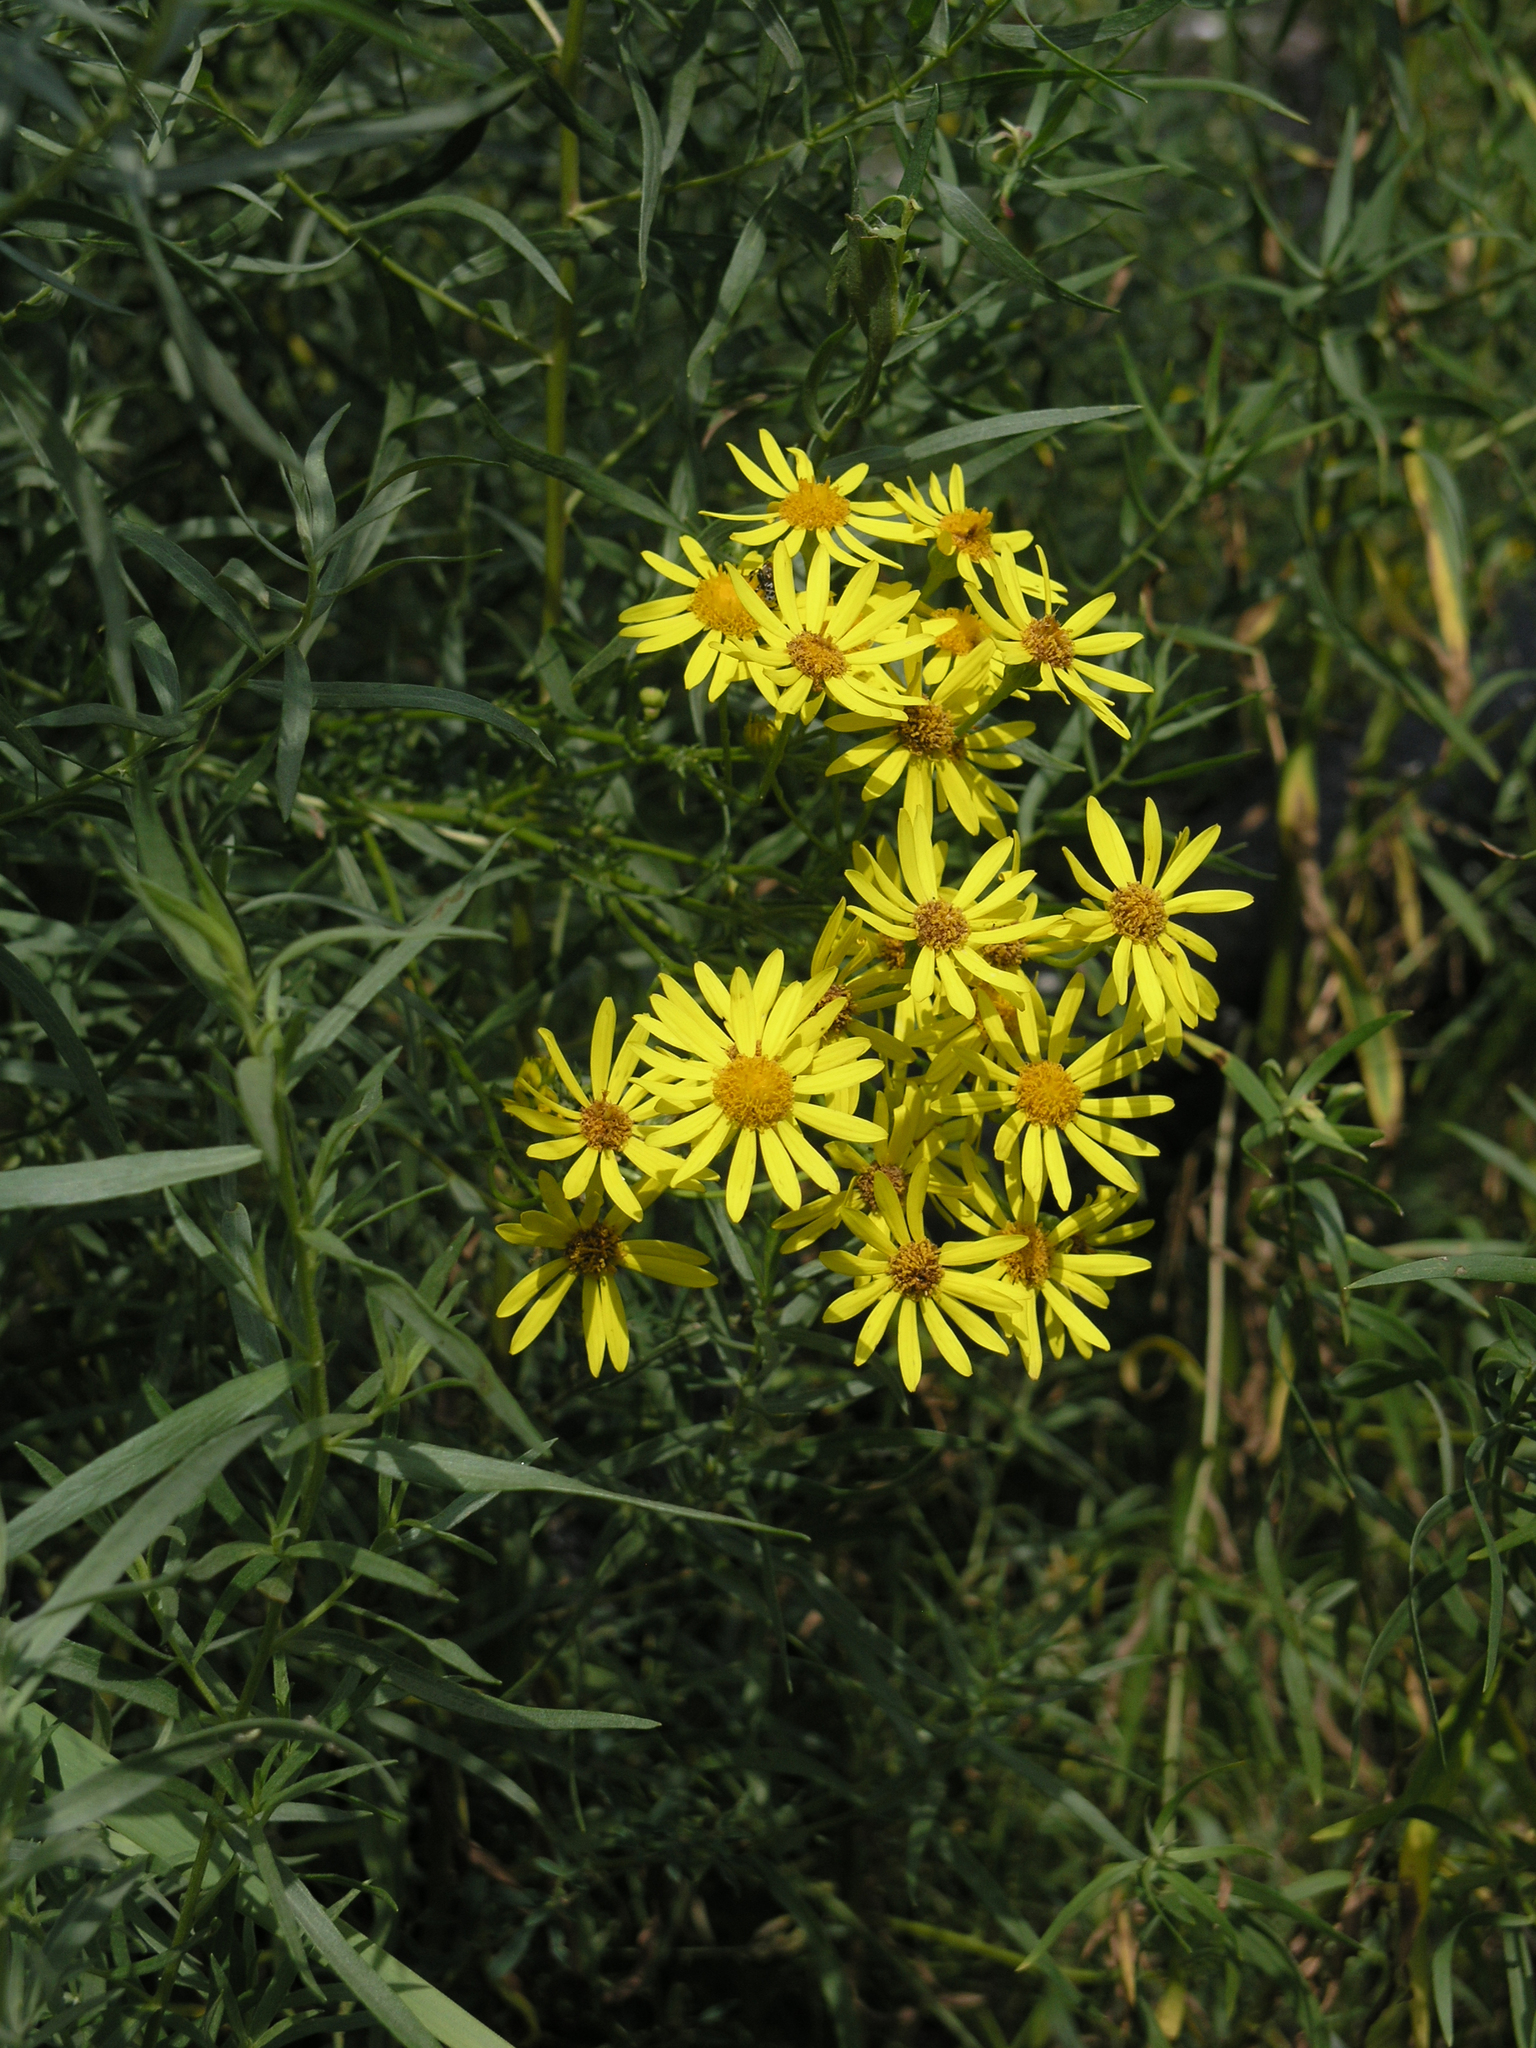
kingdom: Plantae
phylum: Tracheophyta
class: Magnoliopsida
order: Asterales
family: Asteraceae
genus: Jacobaea
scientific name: Jacobaea erucifolia
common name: Hoary ragwort
